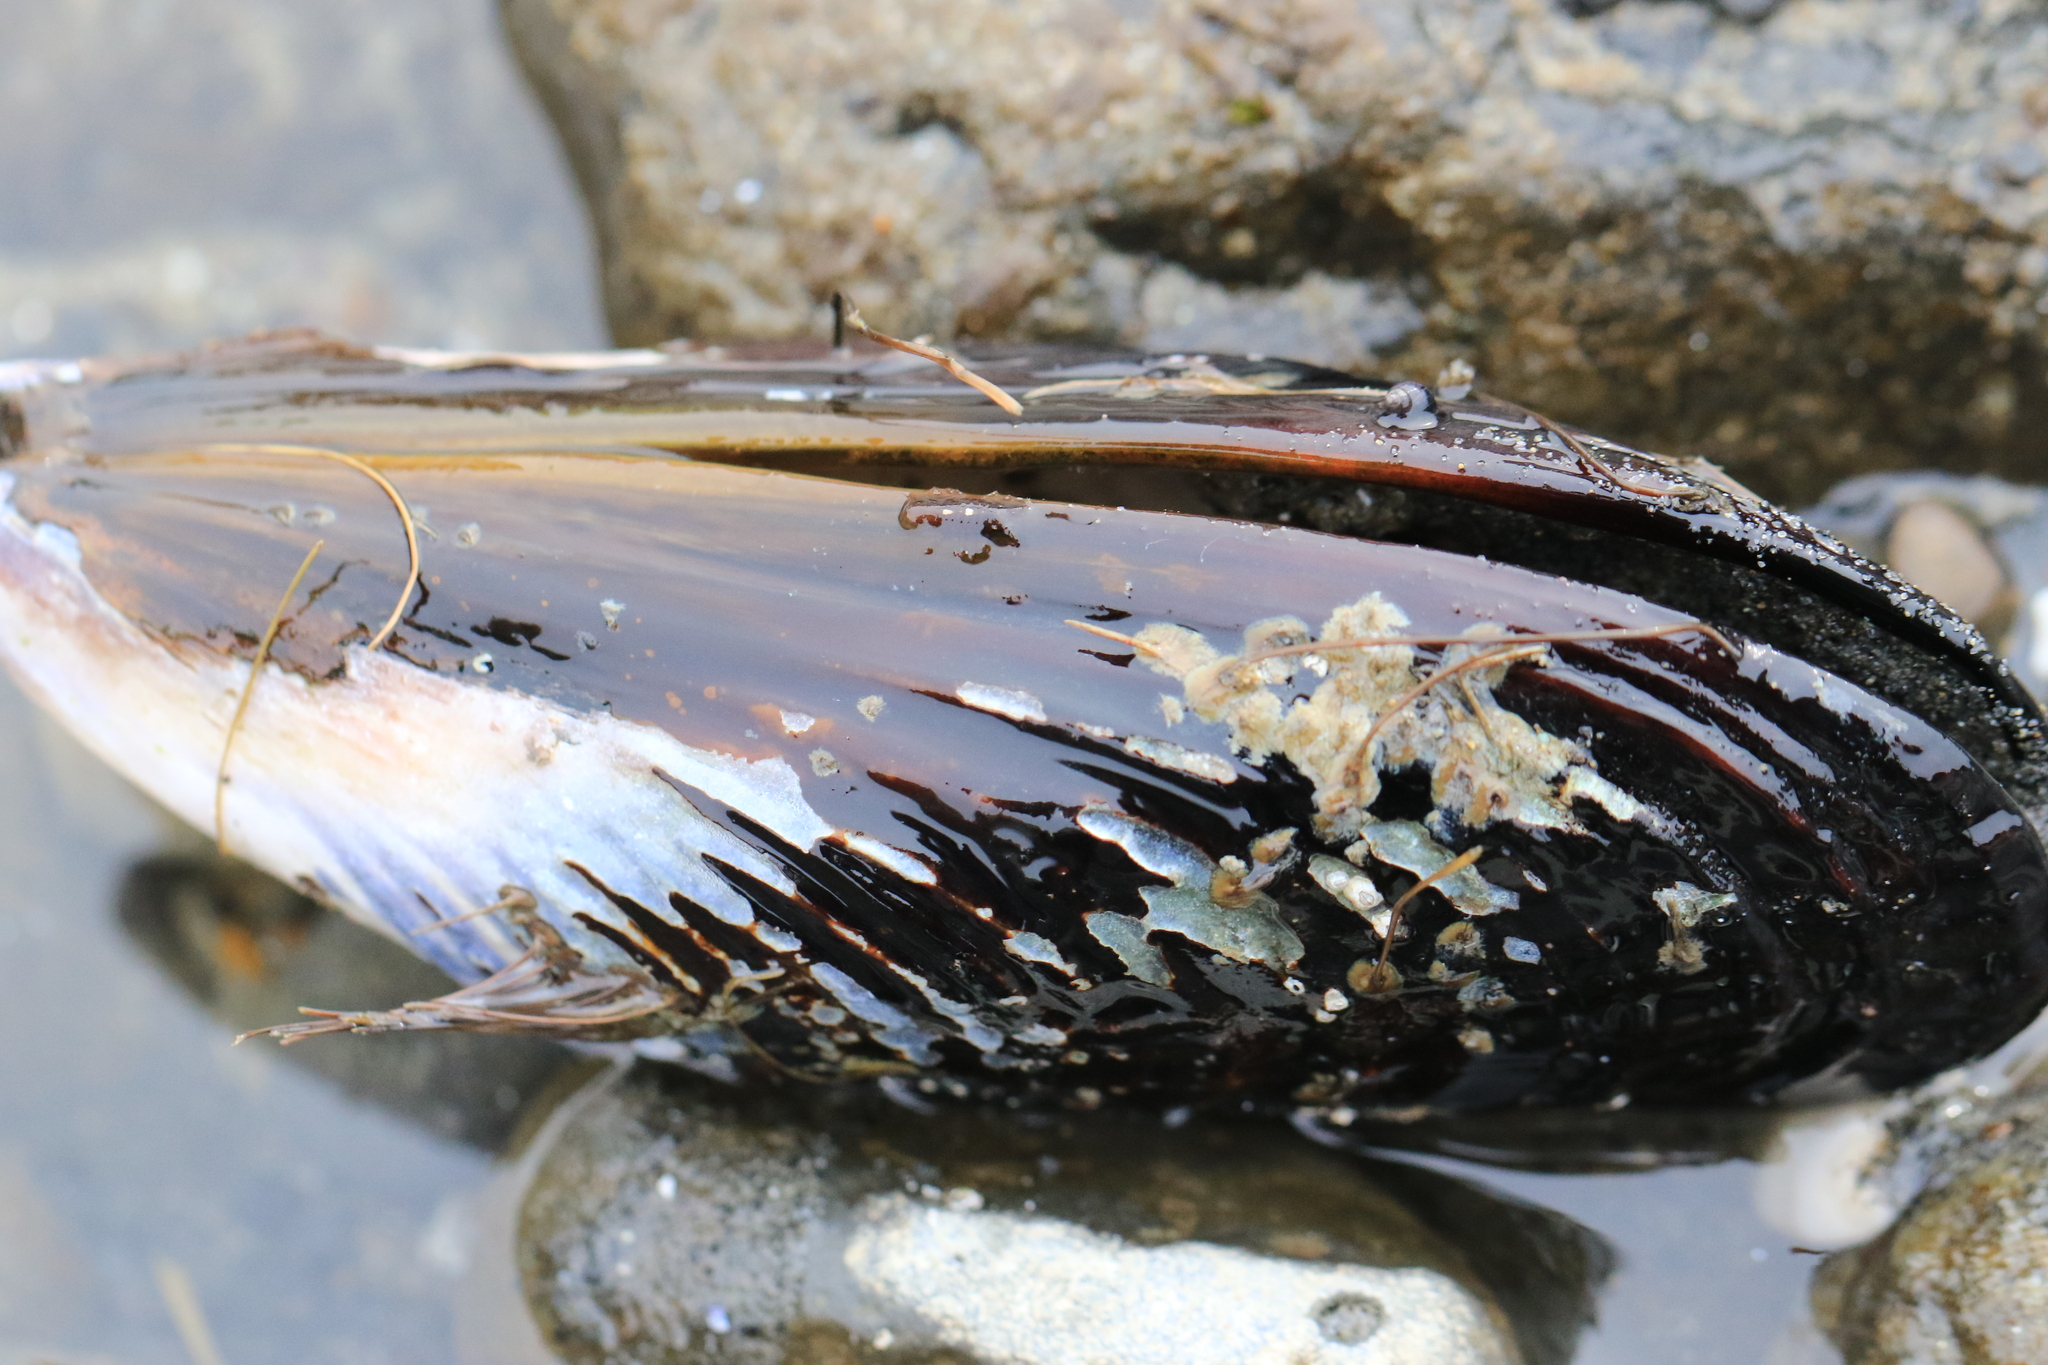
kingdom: Animalia
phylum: Mollusca
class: Bivalvia
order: Mytilida
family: Mytilidae
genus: Mytilus
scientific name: Mytilus californianus
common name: California mussel
